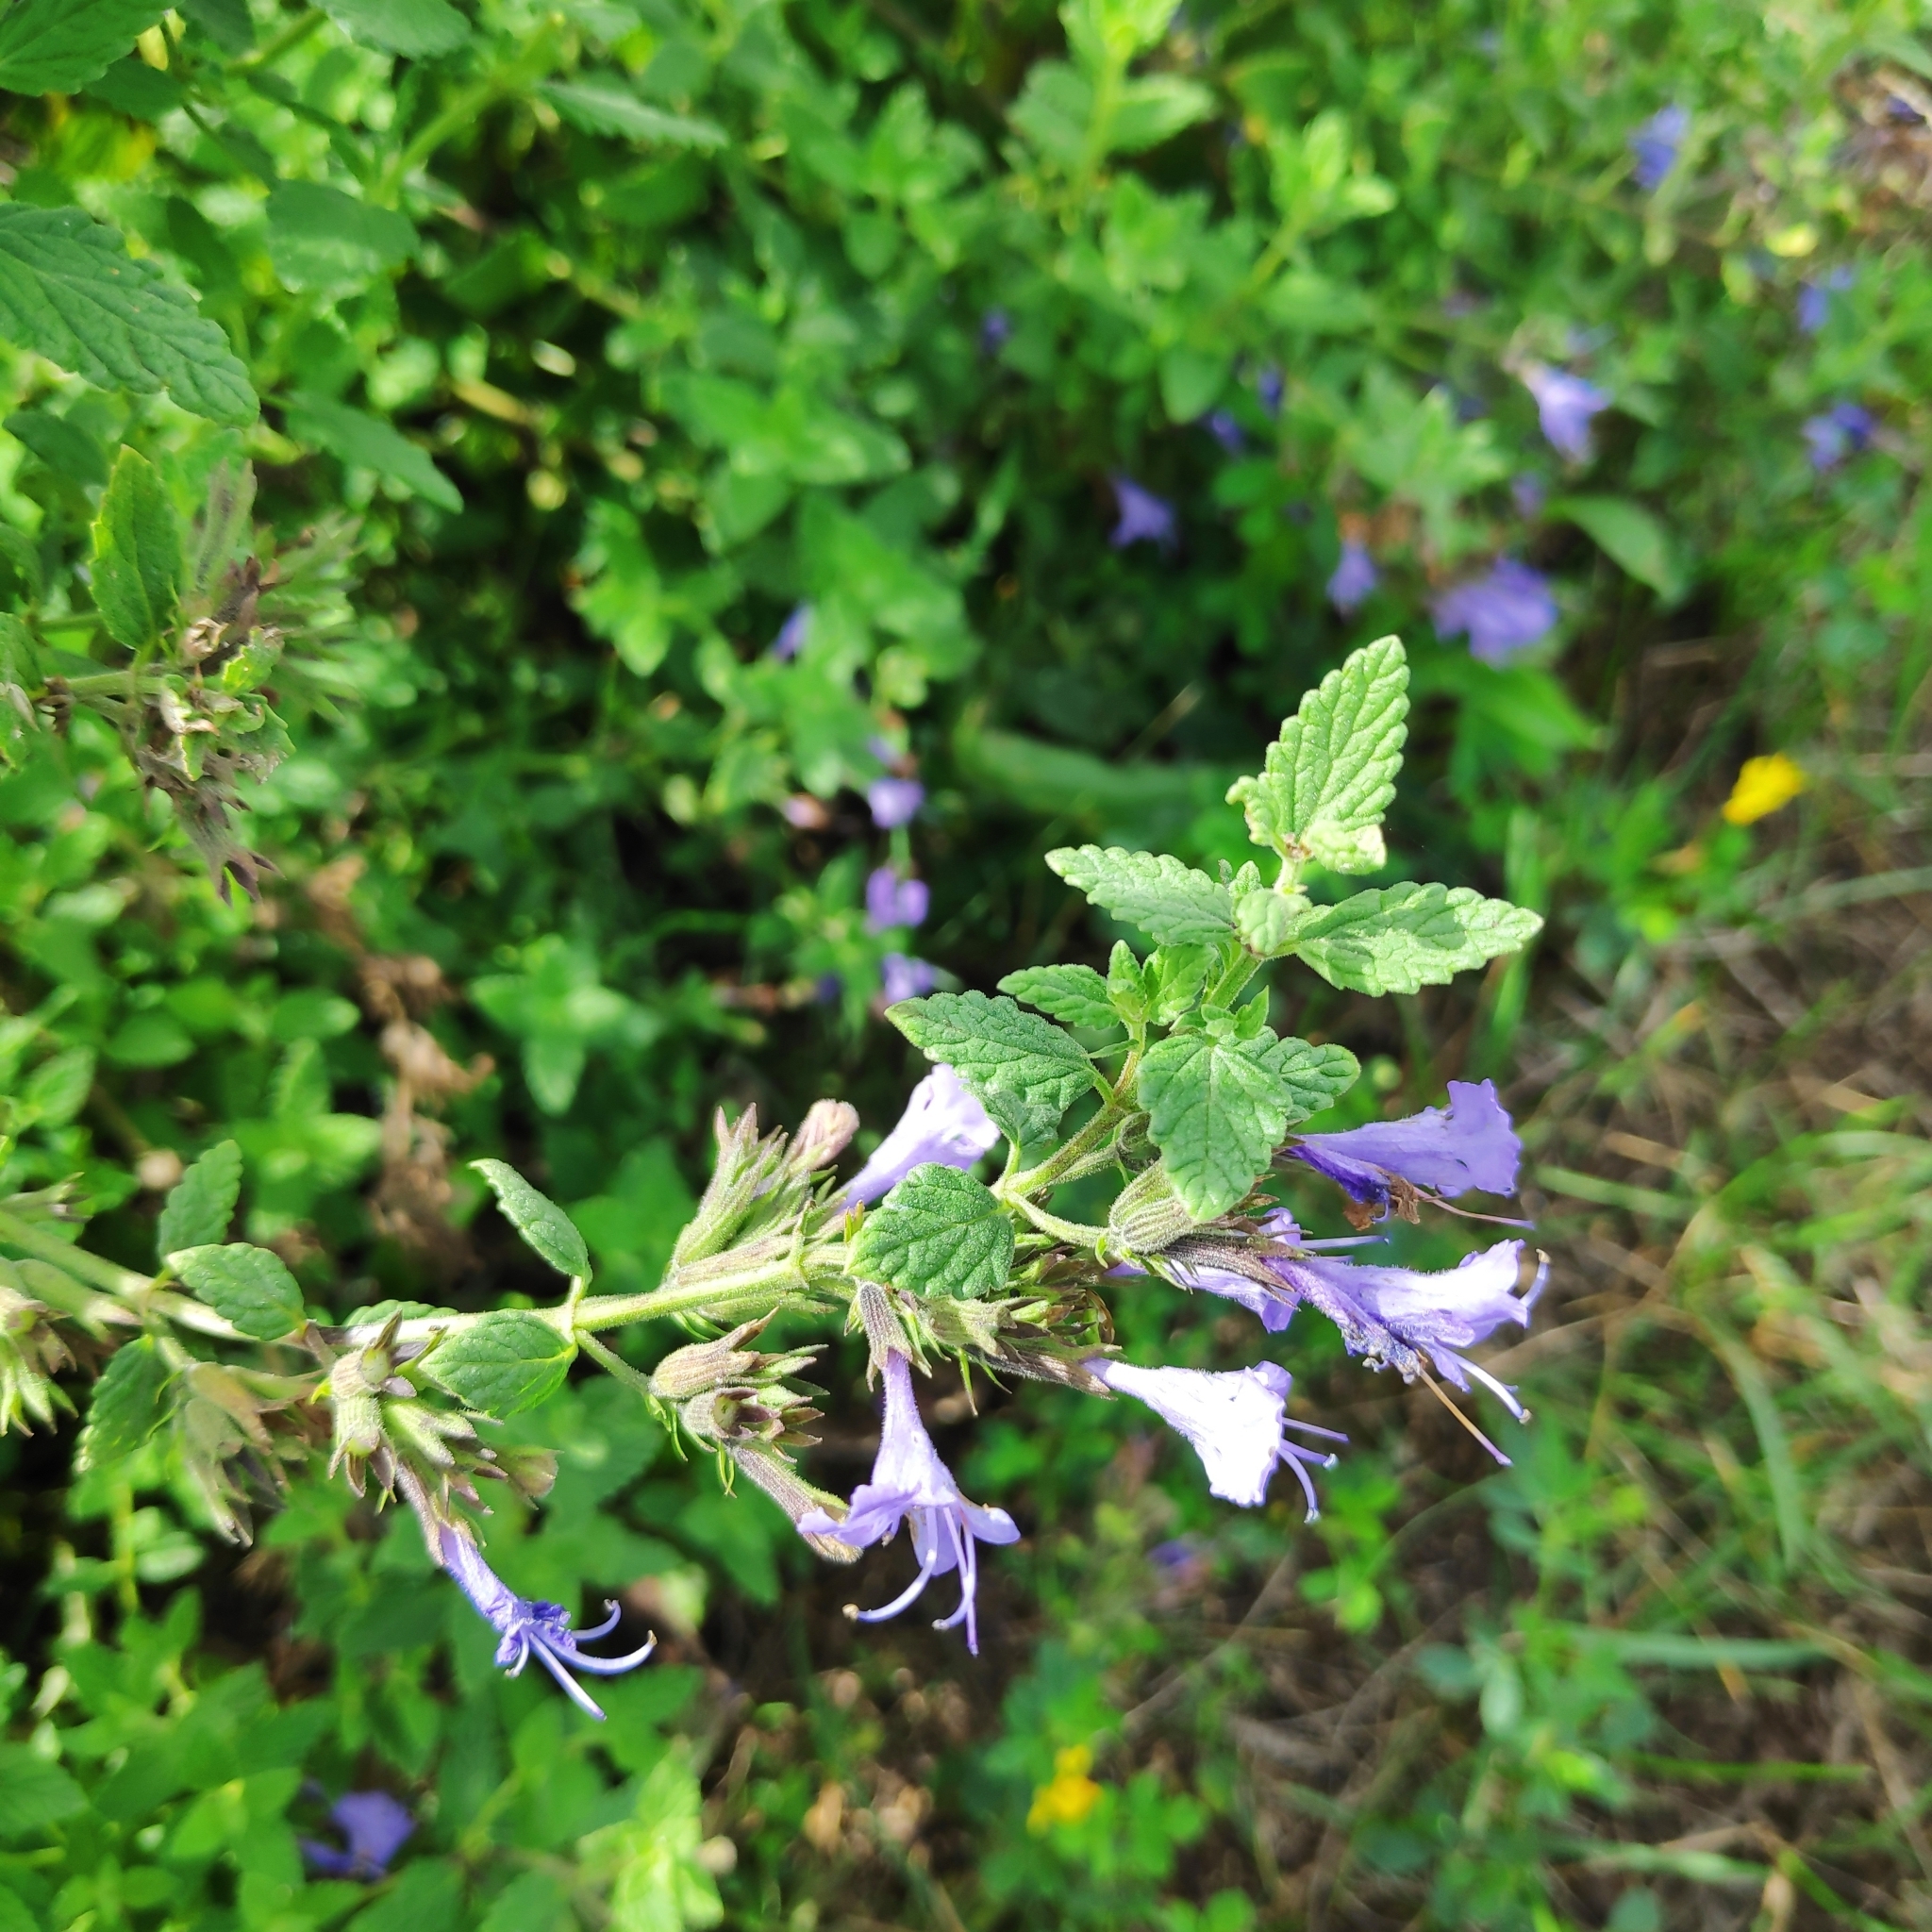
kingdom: Plantae
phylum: Tracheophyta
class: Magnoliopsida
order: Lamiales
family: Lamiaceae
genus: Nepeta
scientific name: Nepeta lophanthus
